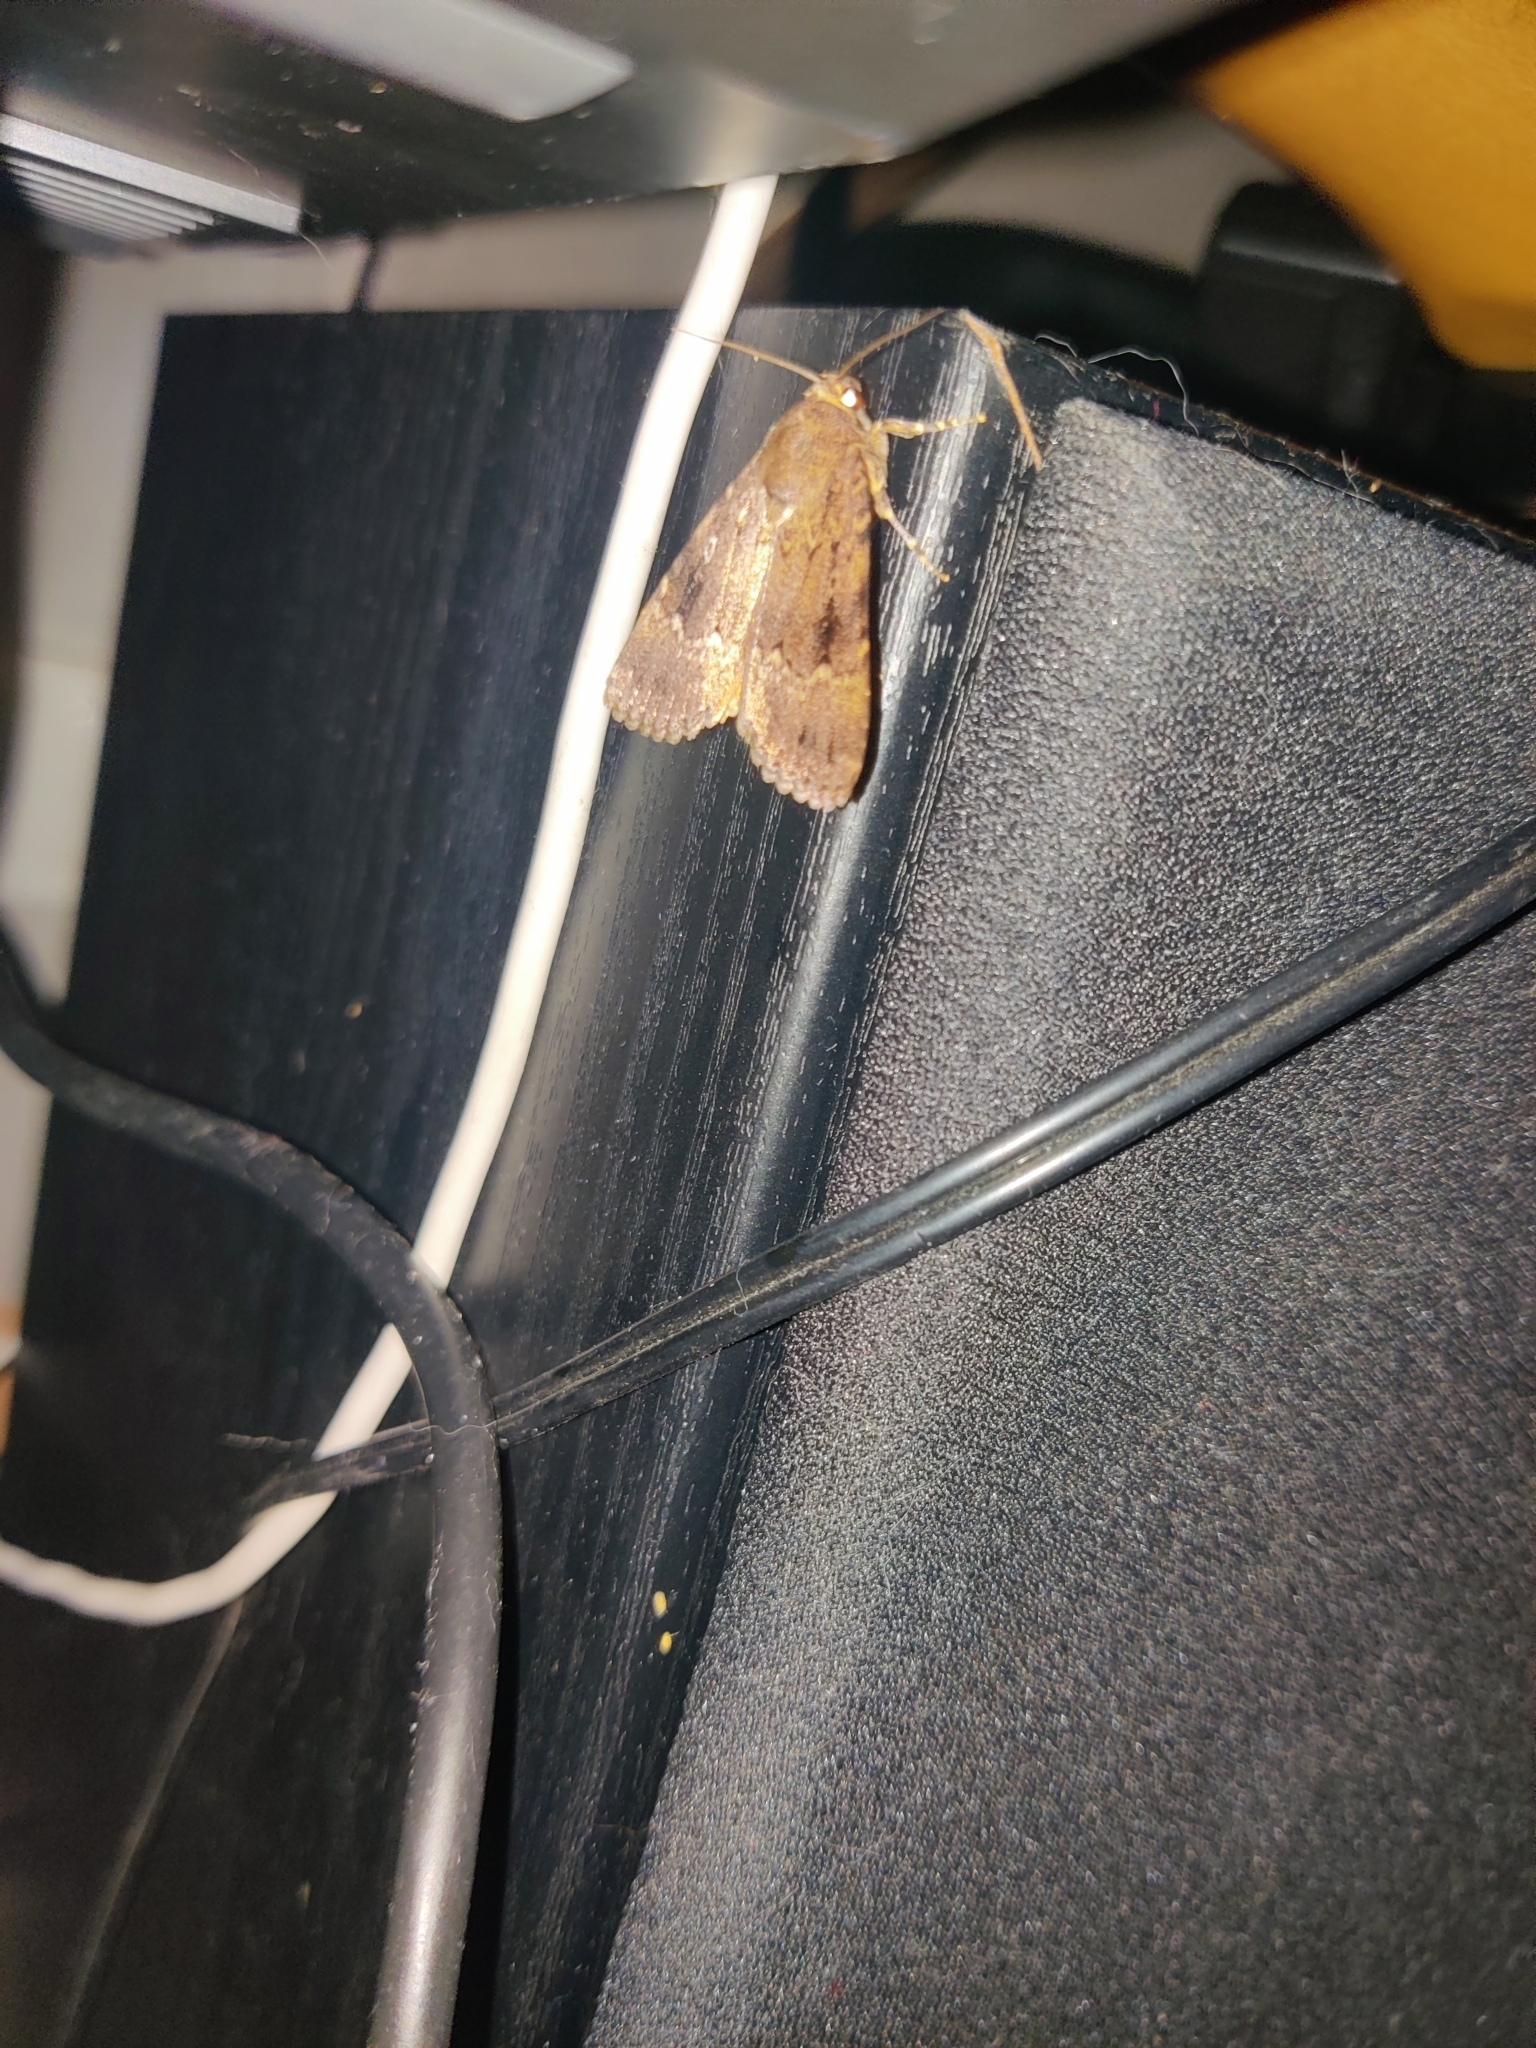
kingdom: Animalia
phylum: Arthropoda
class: Insecta
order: Lepidoptera
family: Noctuidae
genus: Amphipyra
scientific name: Amphipyra pyramidea
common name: Copper underwing
